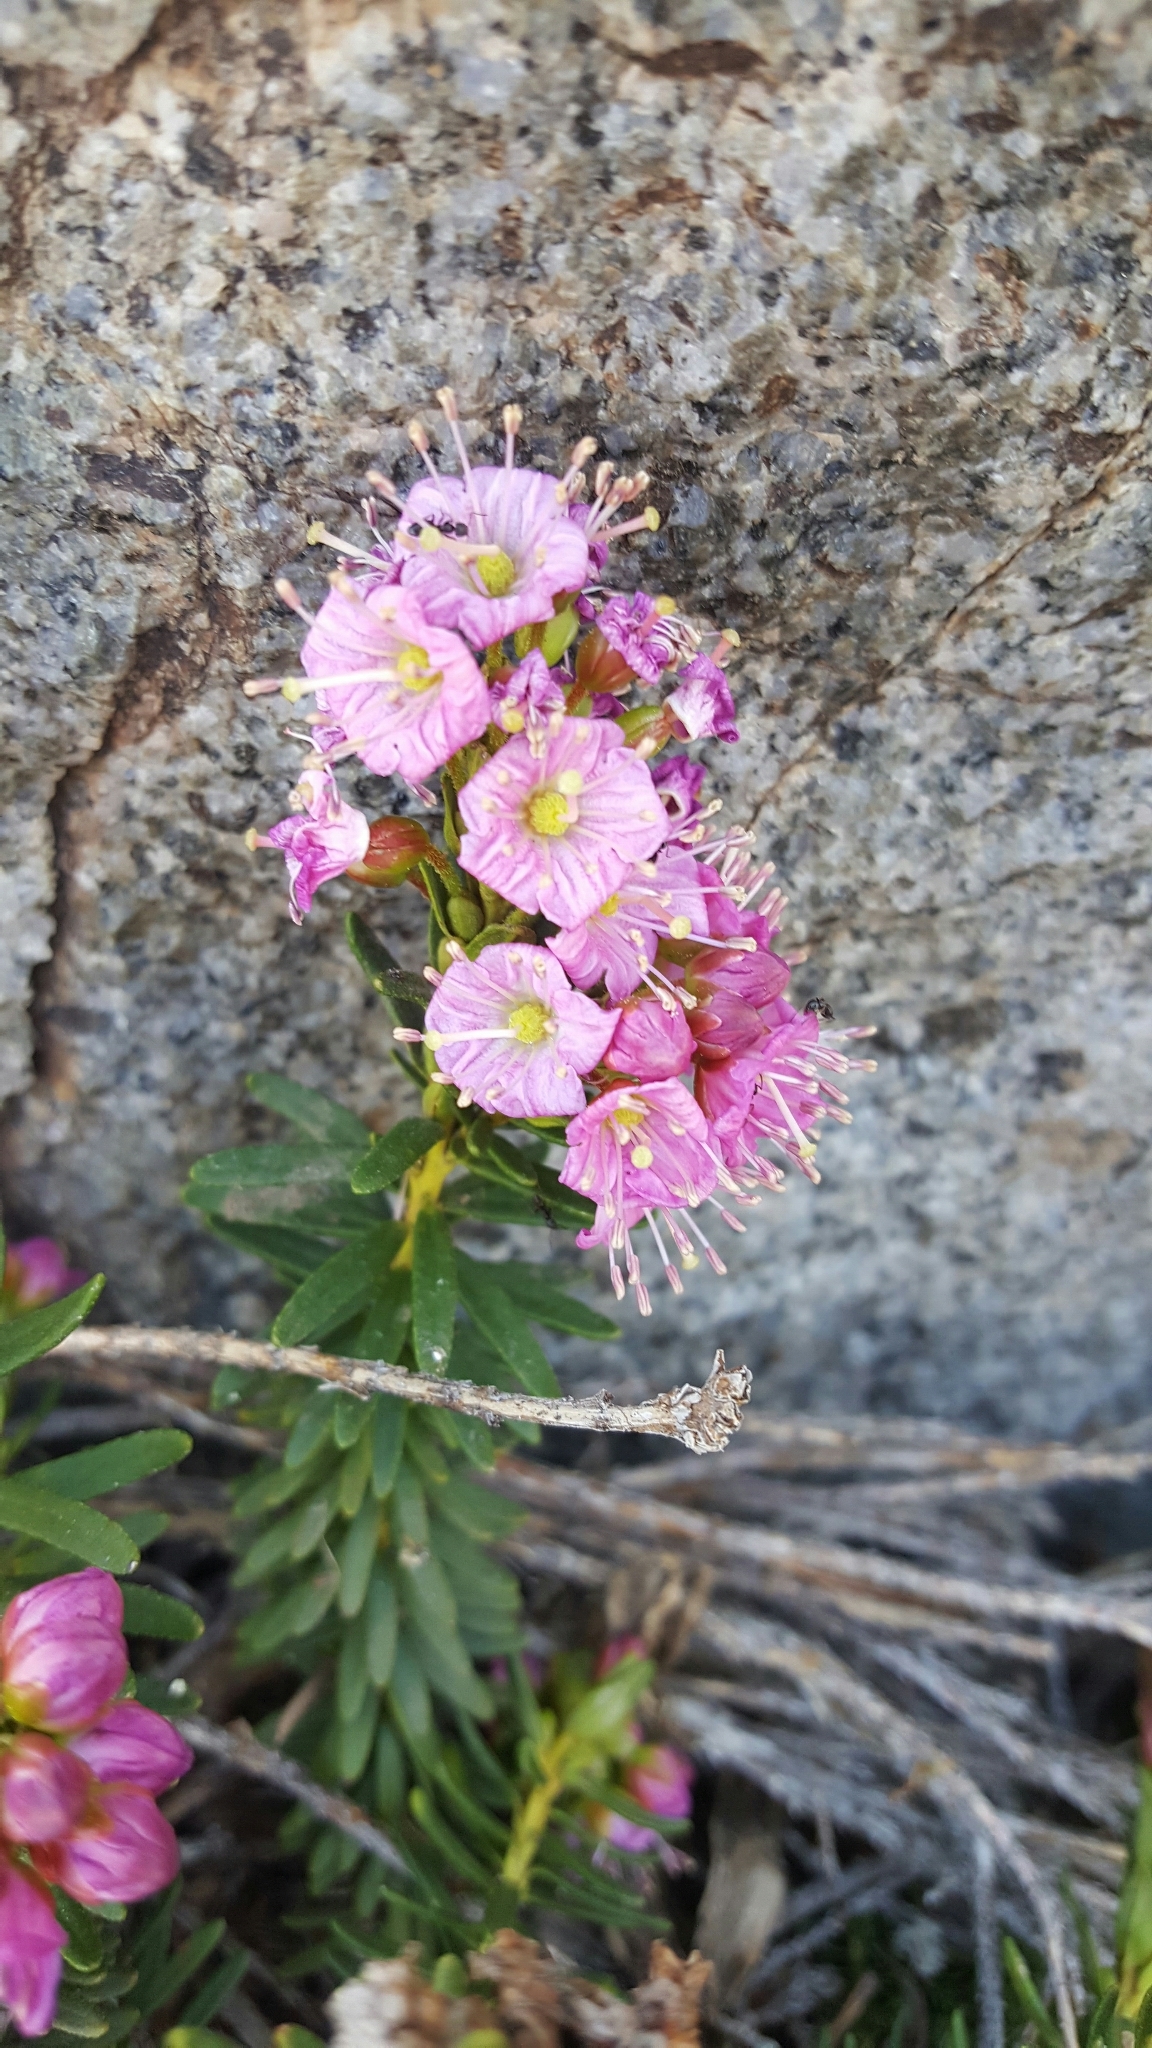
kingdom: Plantae
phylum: Tracheophyta
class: Magnoliopsida
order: Ericales
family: Ericaceae
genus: Phyllodoce
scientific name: Phyllodoce breweri
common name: Brewer's mountain-heather
